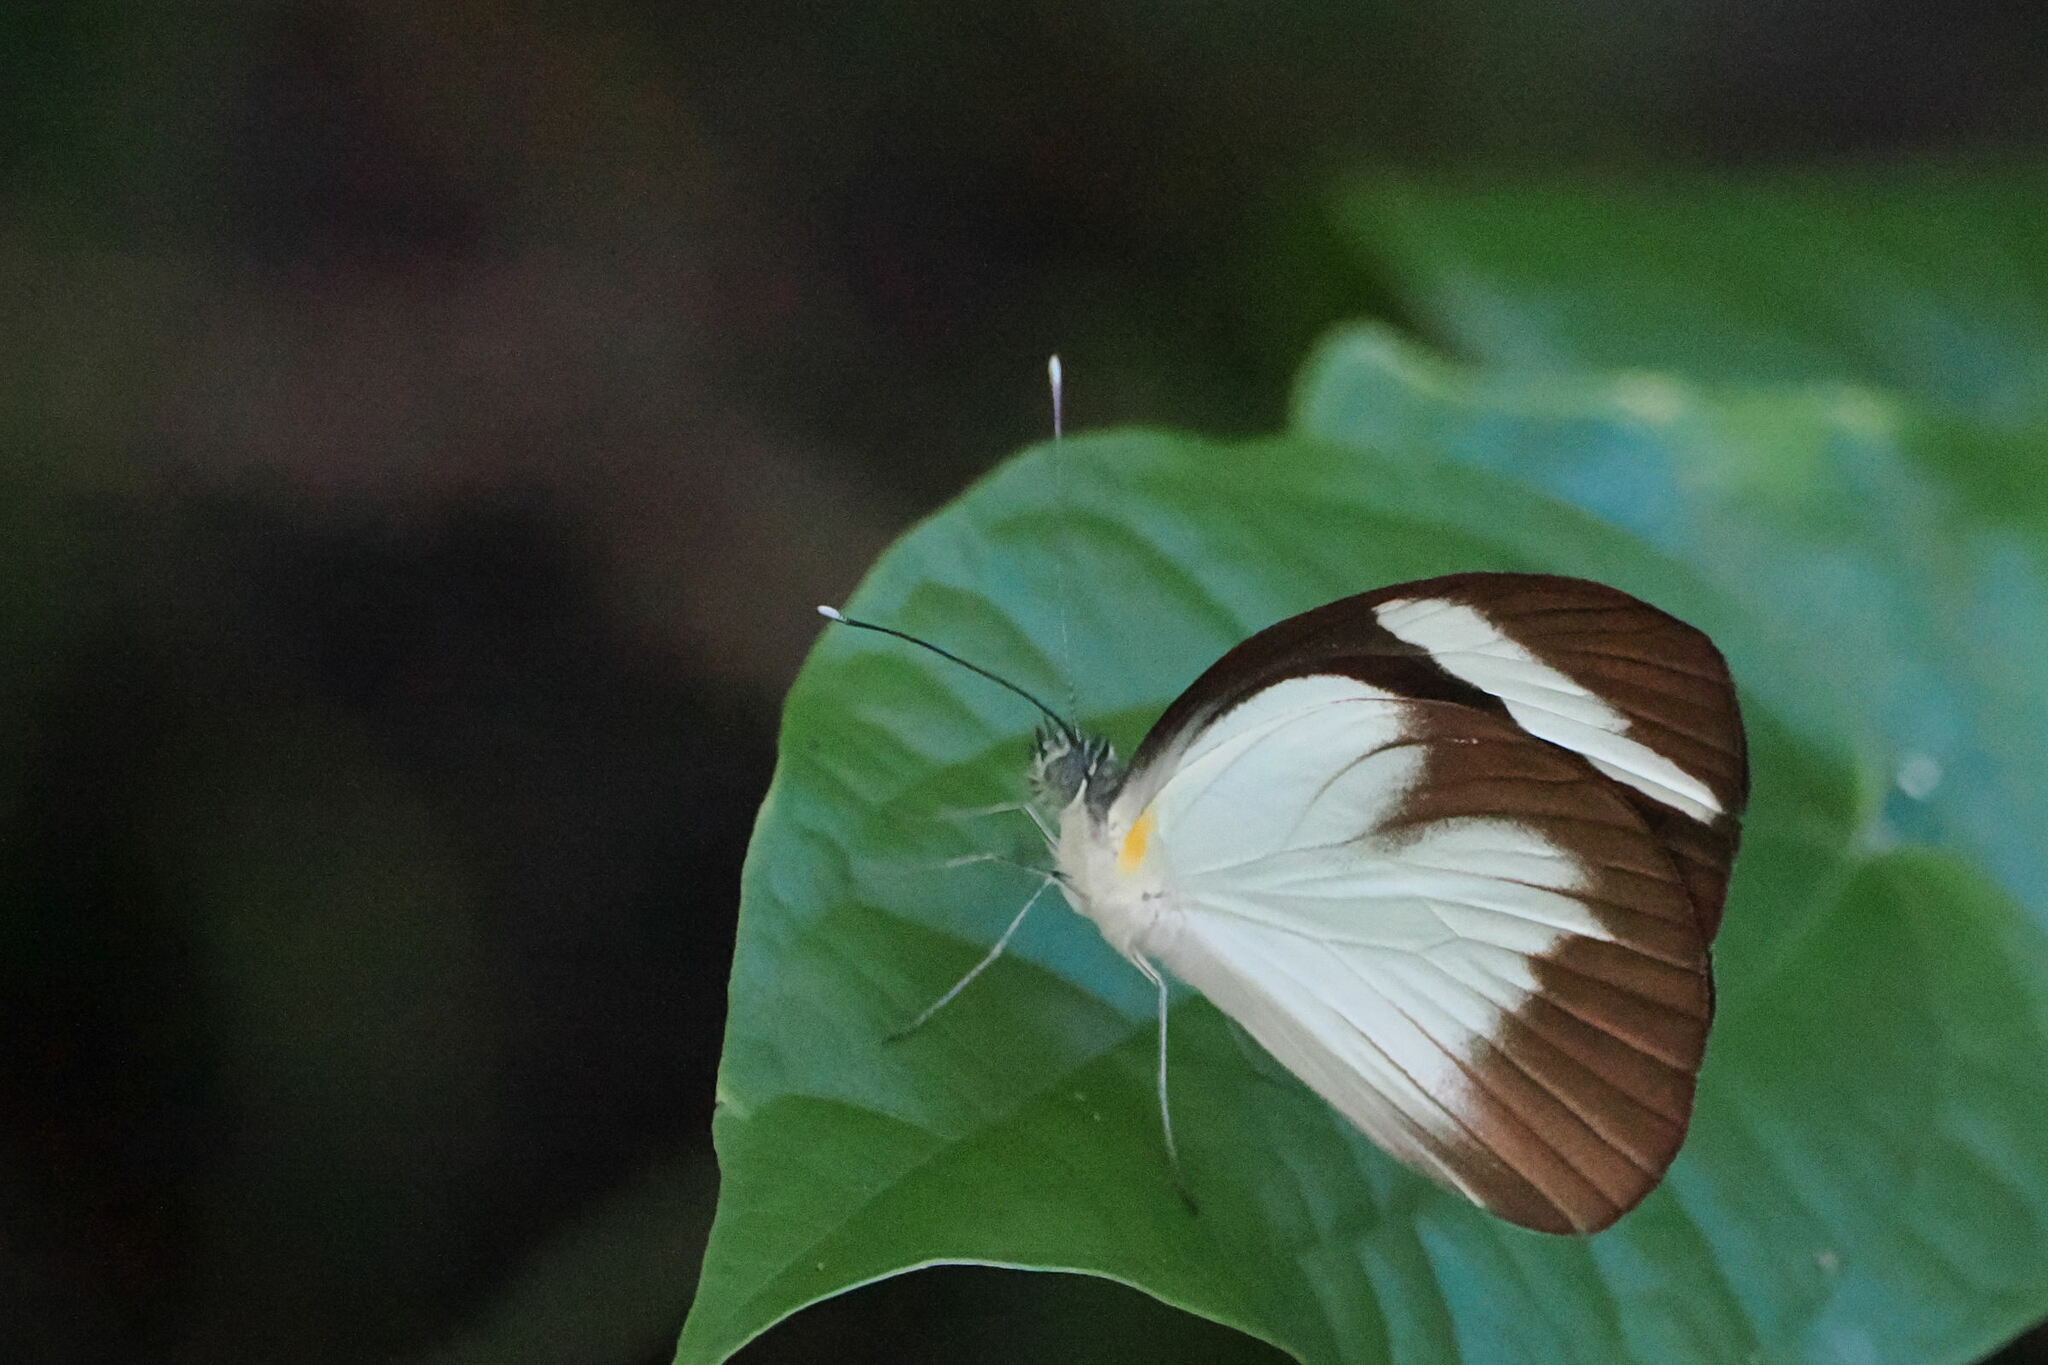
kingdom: Animalia
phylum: Arthropoda
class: Insecta
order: Lepidoptera
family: Pieridae
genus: Itaballia
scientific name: Itaballia demophile
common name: Cross-barred white
